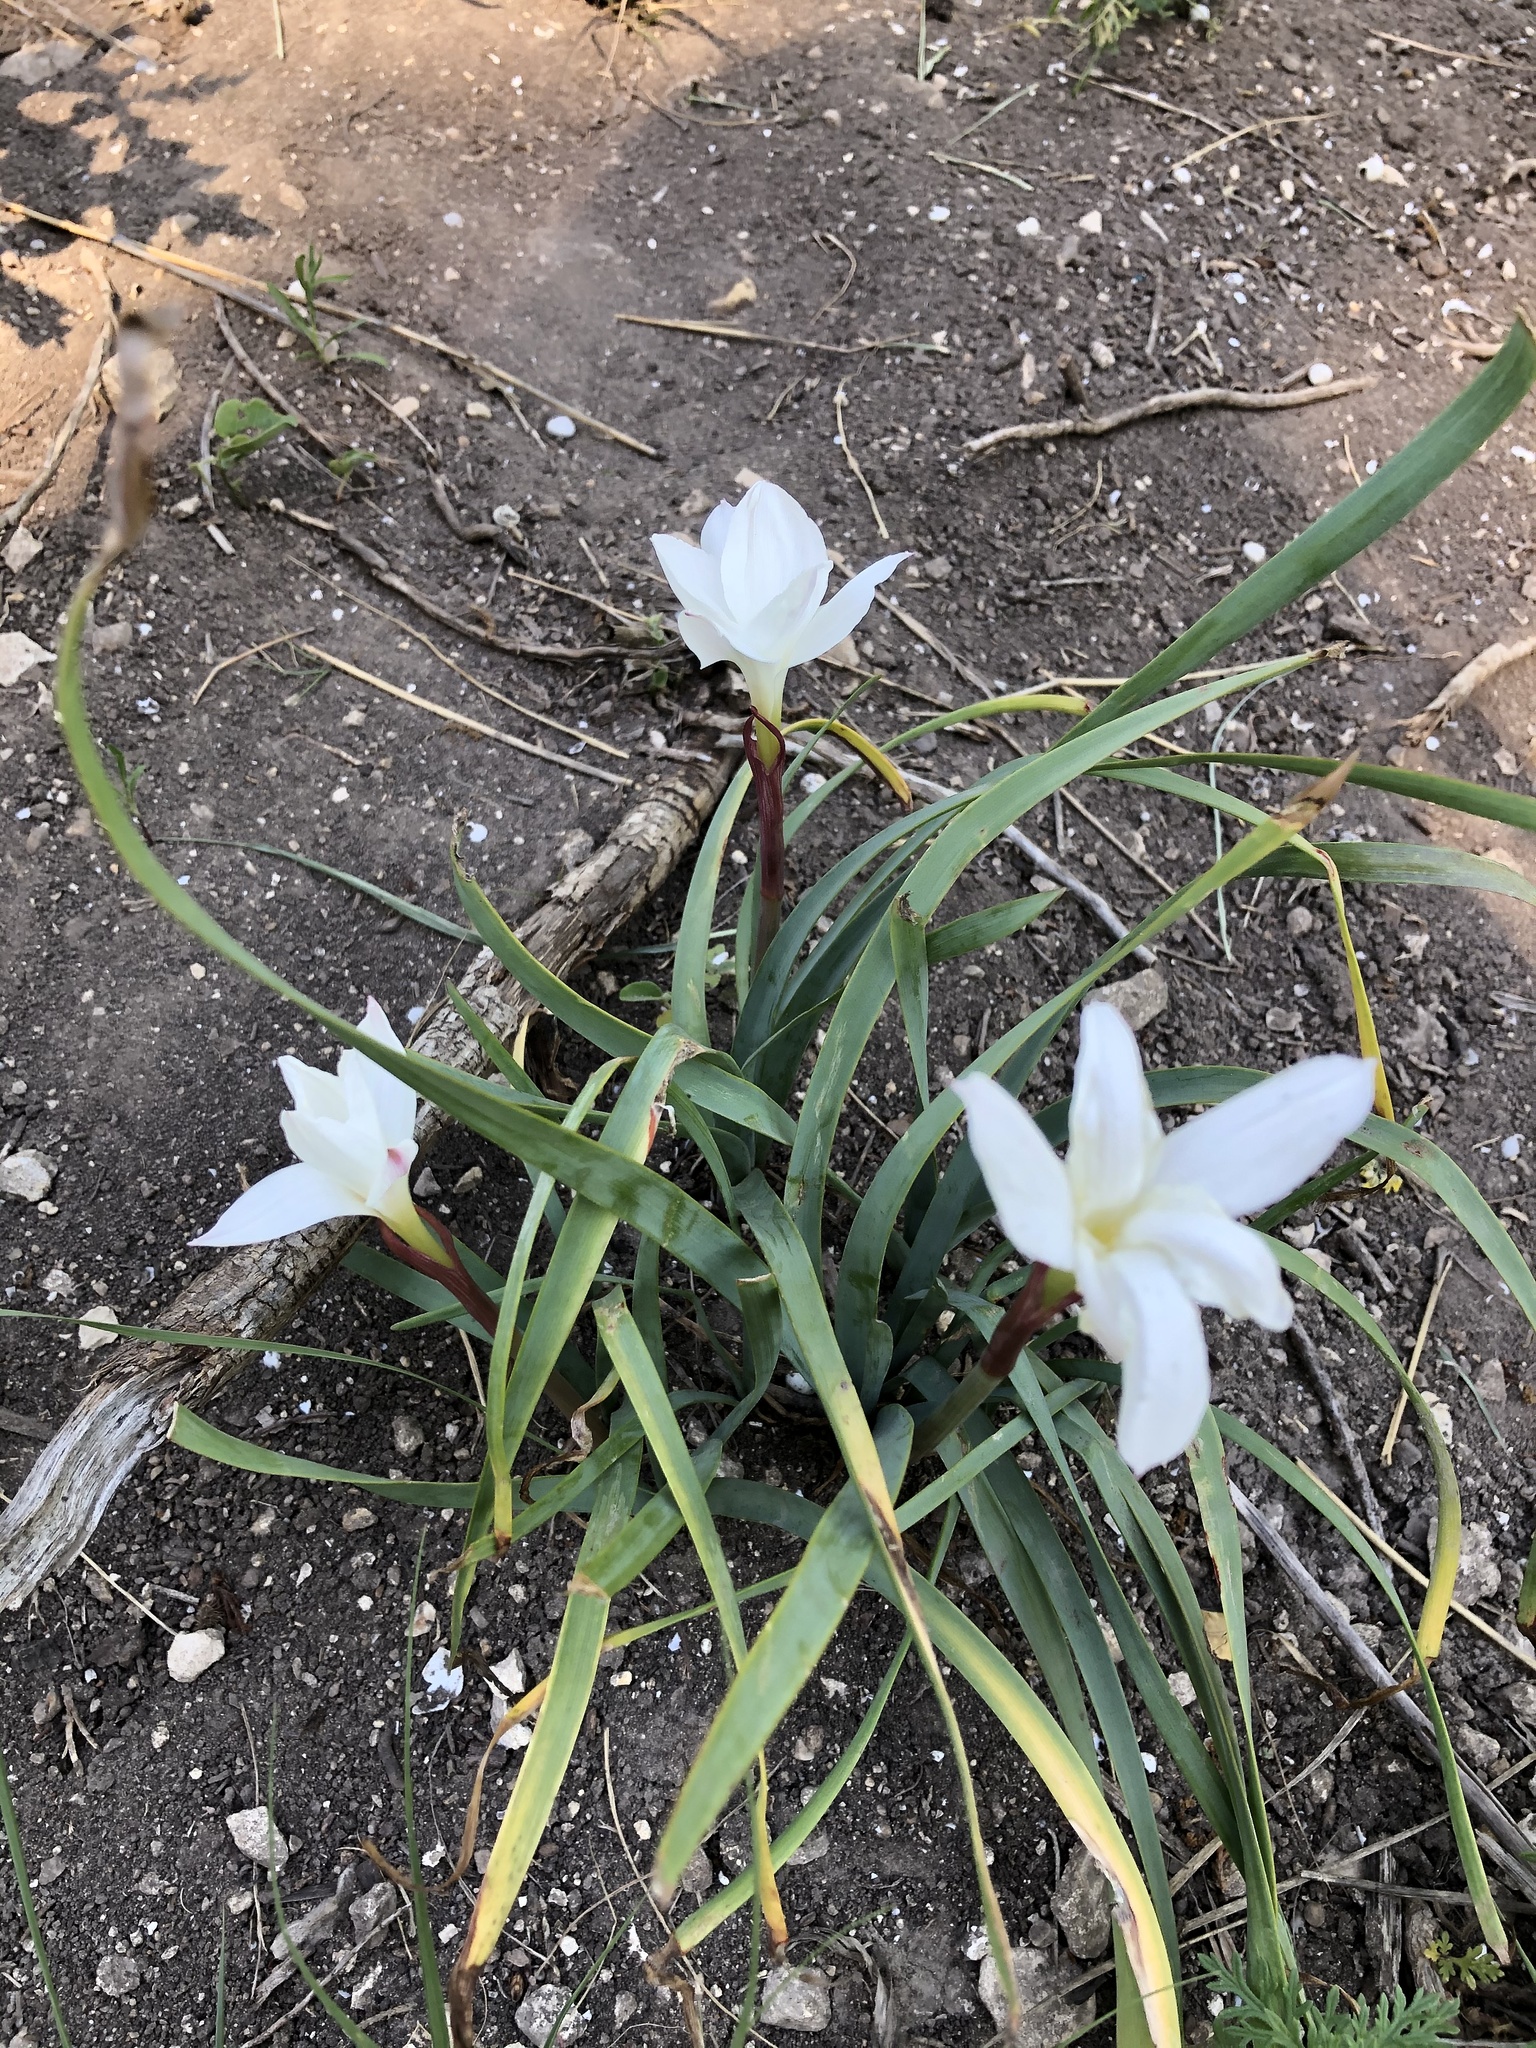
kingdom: Plantae
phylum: Tracheophyta
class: Liliopsida
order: Asparagales
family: Amaryllidaceae
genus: Zephyranthes
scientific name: Zephyranthes drummondii
